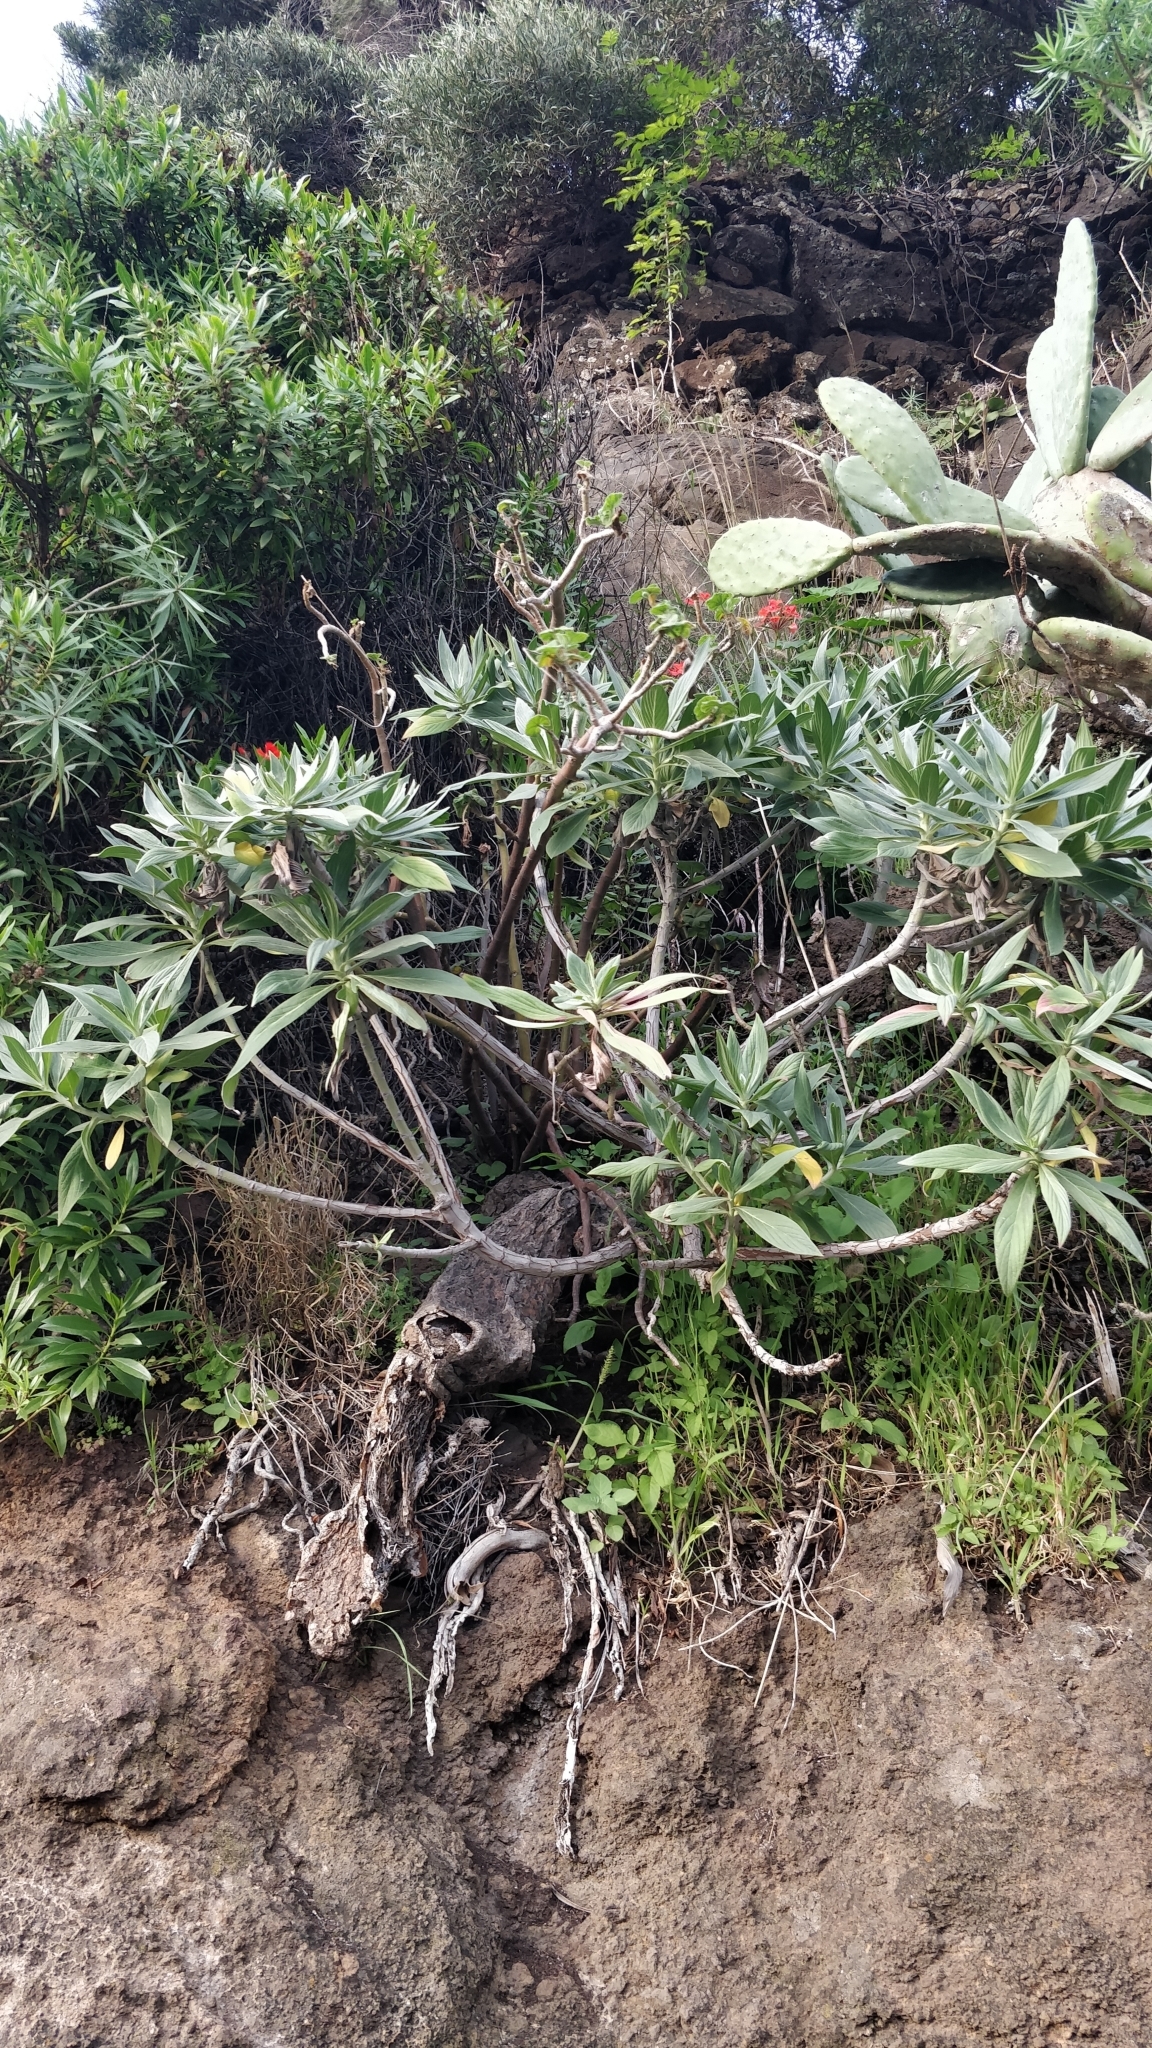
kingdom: Plantae
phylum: Tracheophyta
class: Magnoliopsida
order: Boraginales
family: Boraginaceae
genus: Echium
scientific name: Echium nervosum
